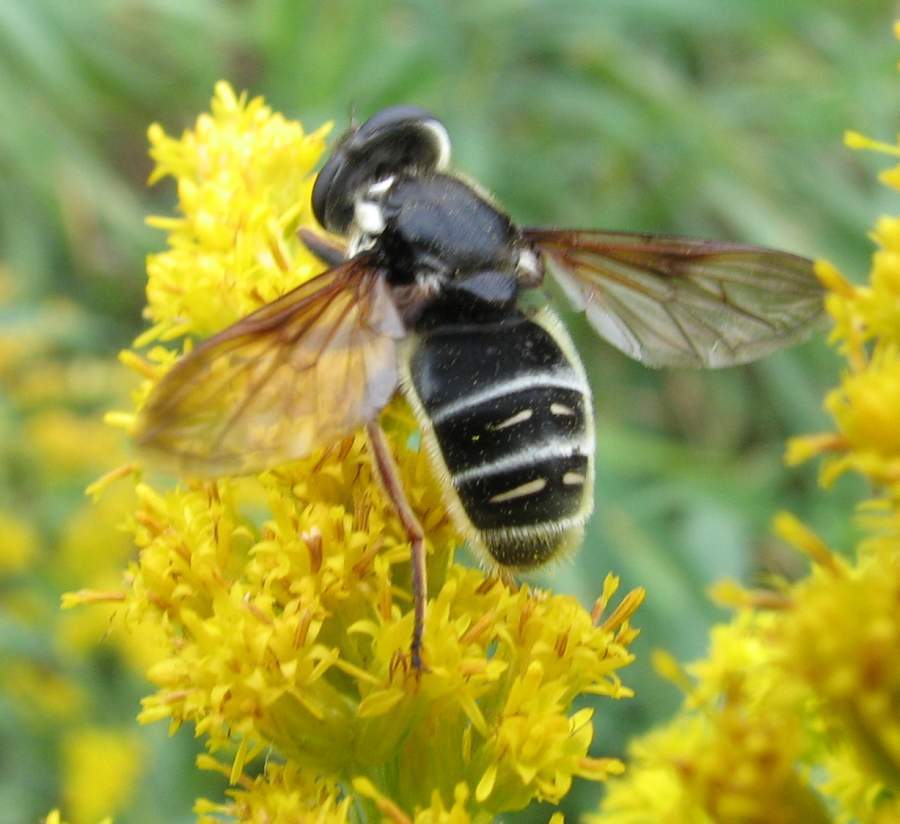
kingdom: Animalia
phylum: Arthropoda
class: Insecta
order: Diptera
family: Syrphidae
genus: Sericomyia
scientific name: Sericomyia militaris
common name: Narrow-banded pond fly
